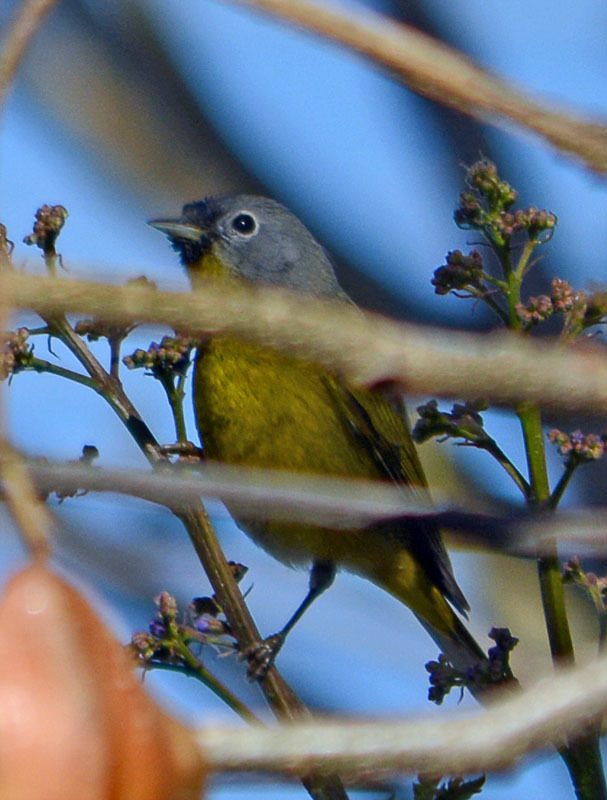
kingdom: Animalia
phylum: Chordata
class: Aves
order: Passeriformes
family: Parulidae
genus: Leiothlypis
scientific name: Leiothlypis ruficapilla
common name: Nashville warbler
